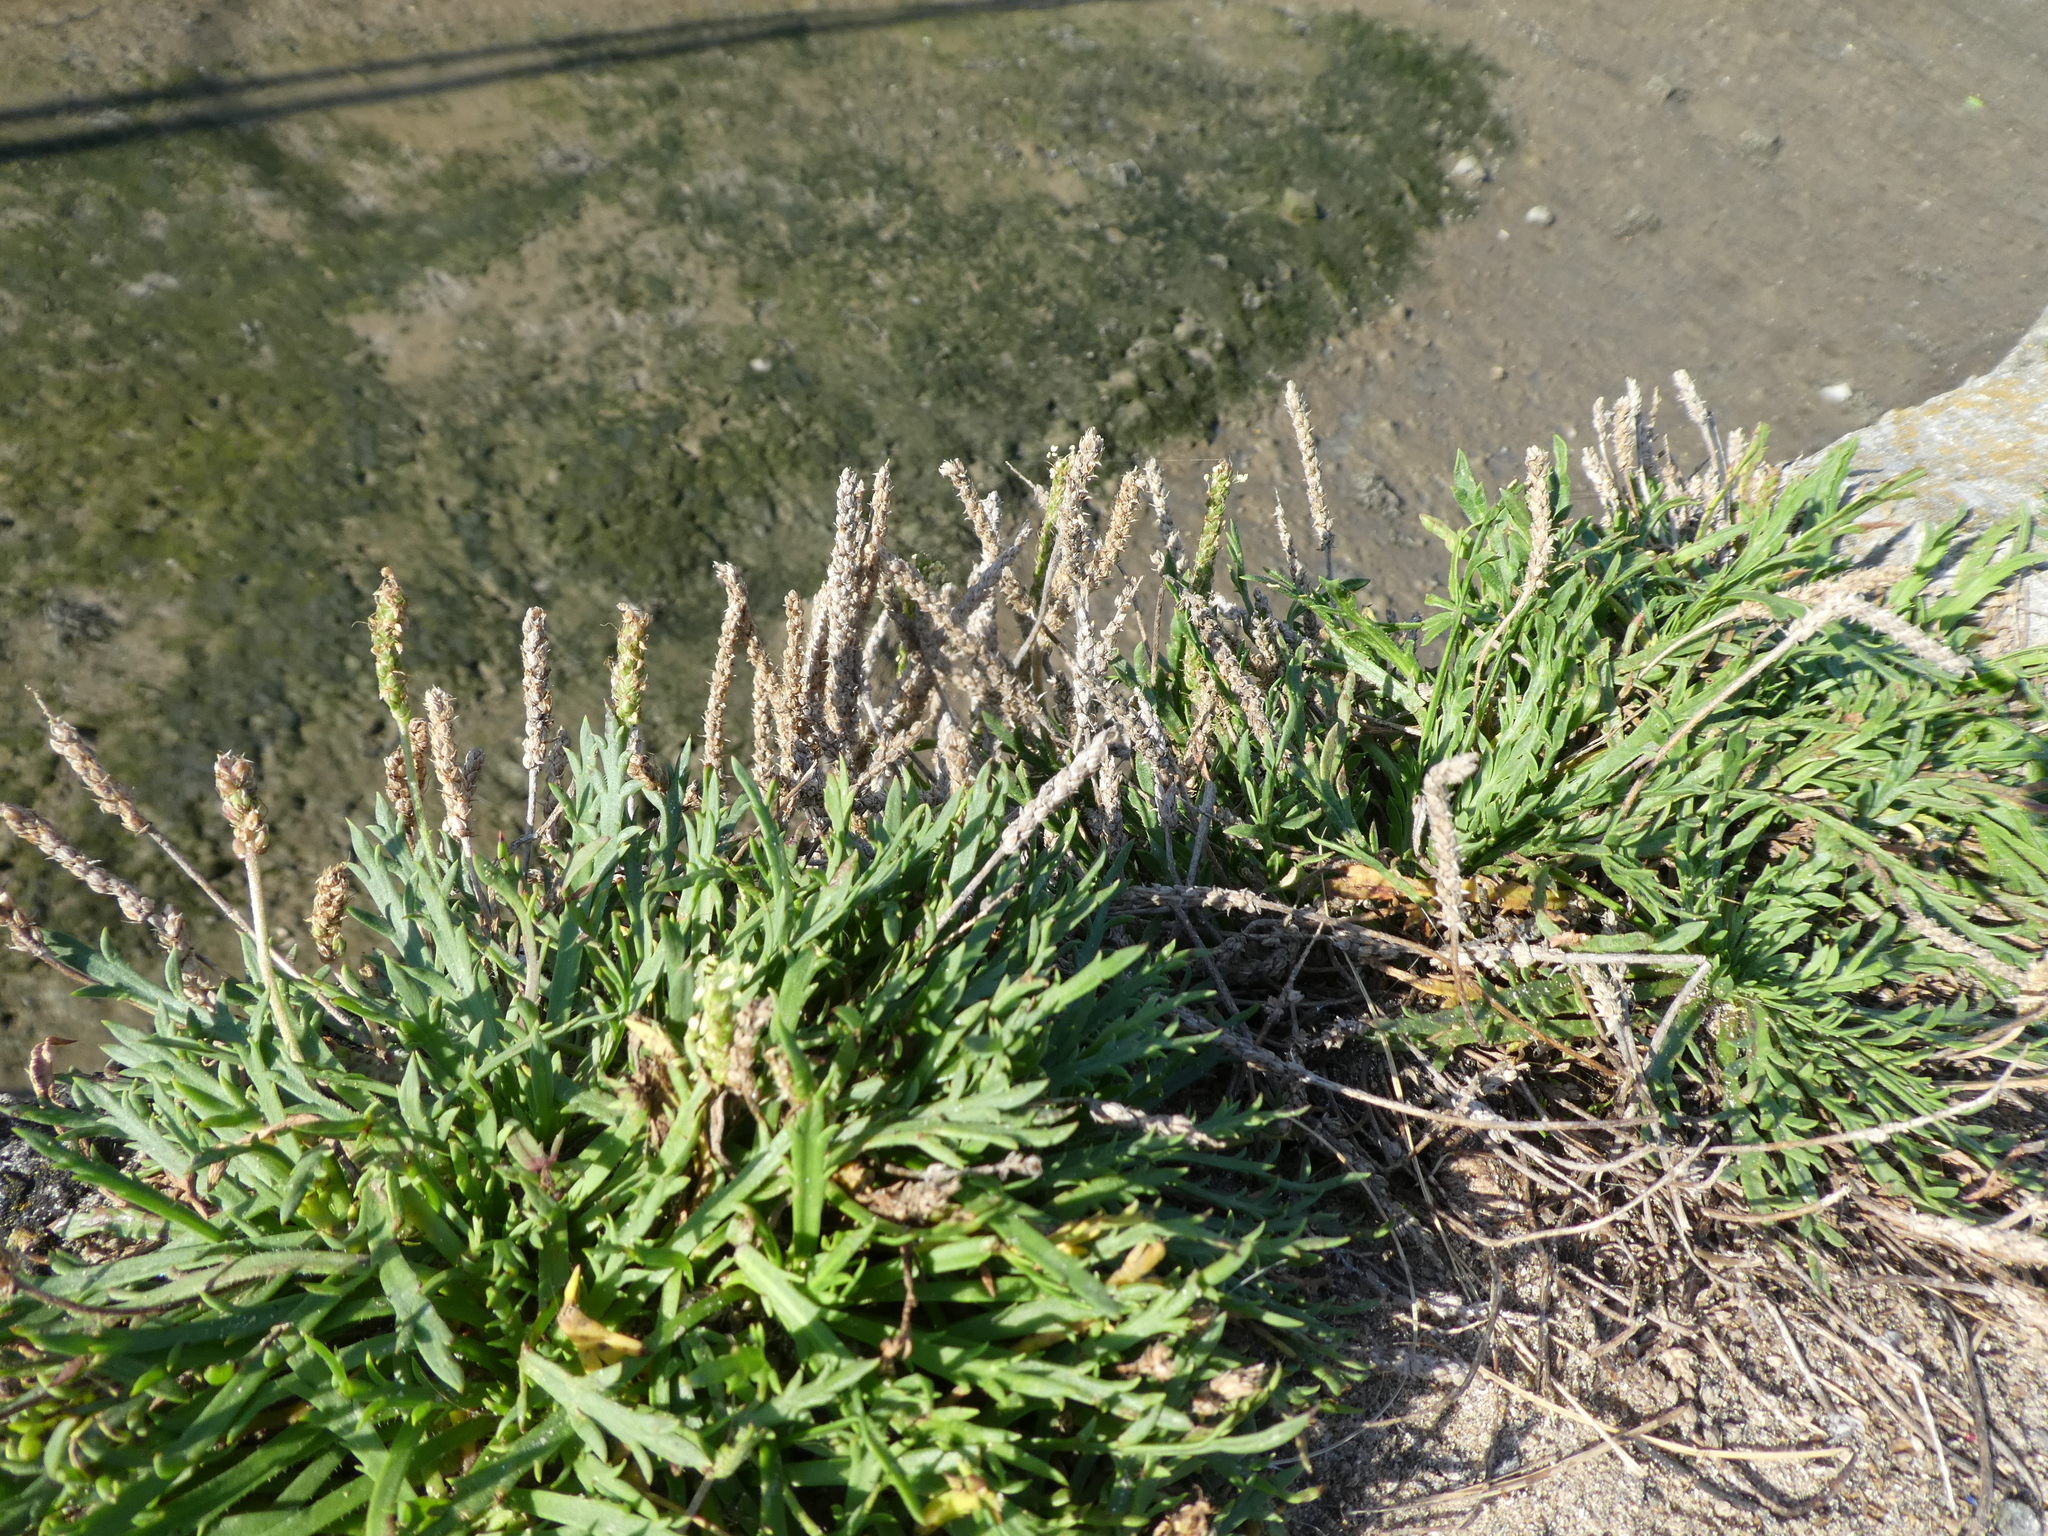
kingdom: Plantae
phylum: Tracheophyta
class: Magnoliopsida
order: Lamiales
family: Plantaginaceae
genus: Plantago
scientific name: Plantago coronopus
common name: Buck's-horn plantain
